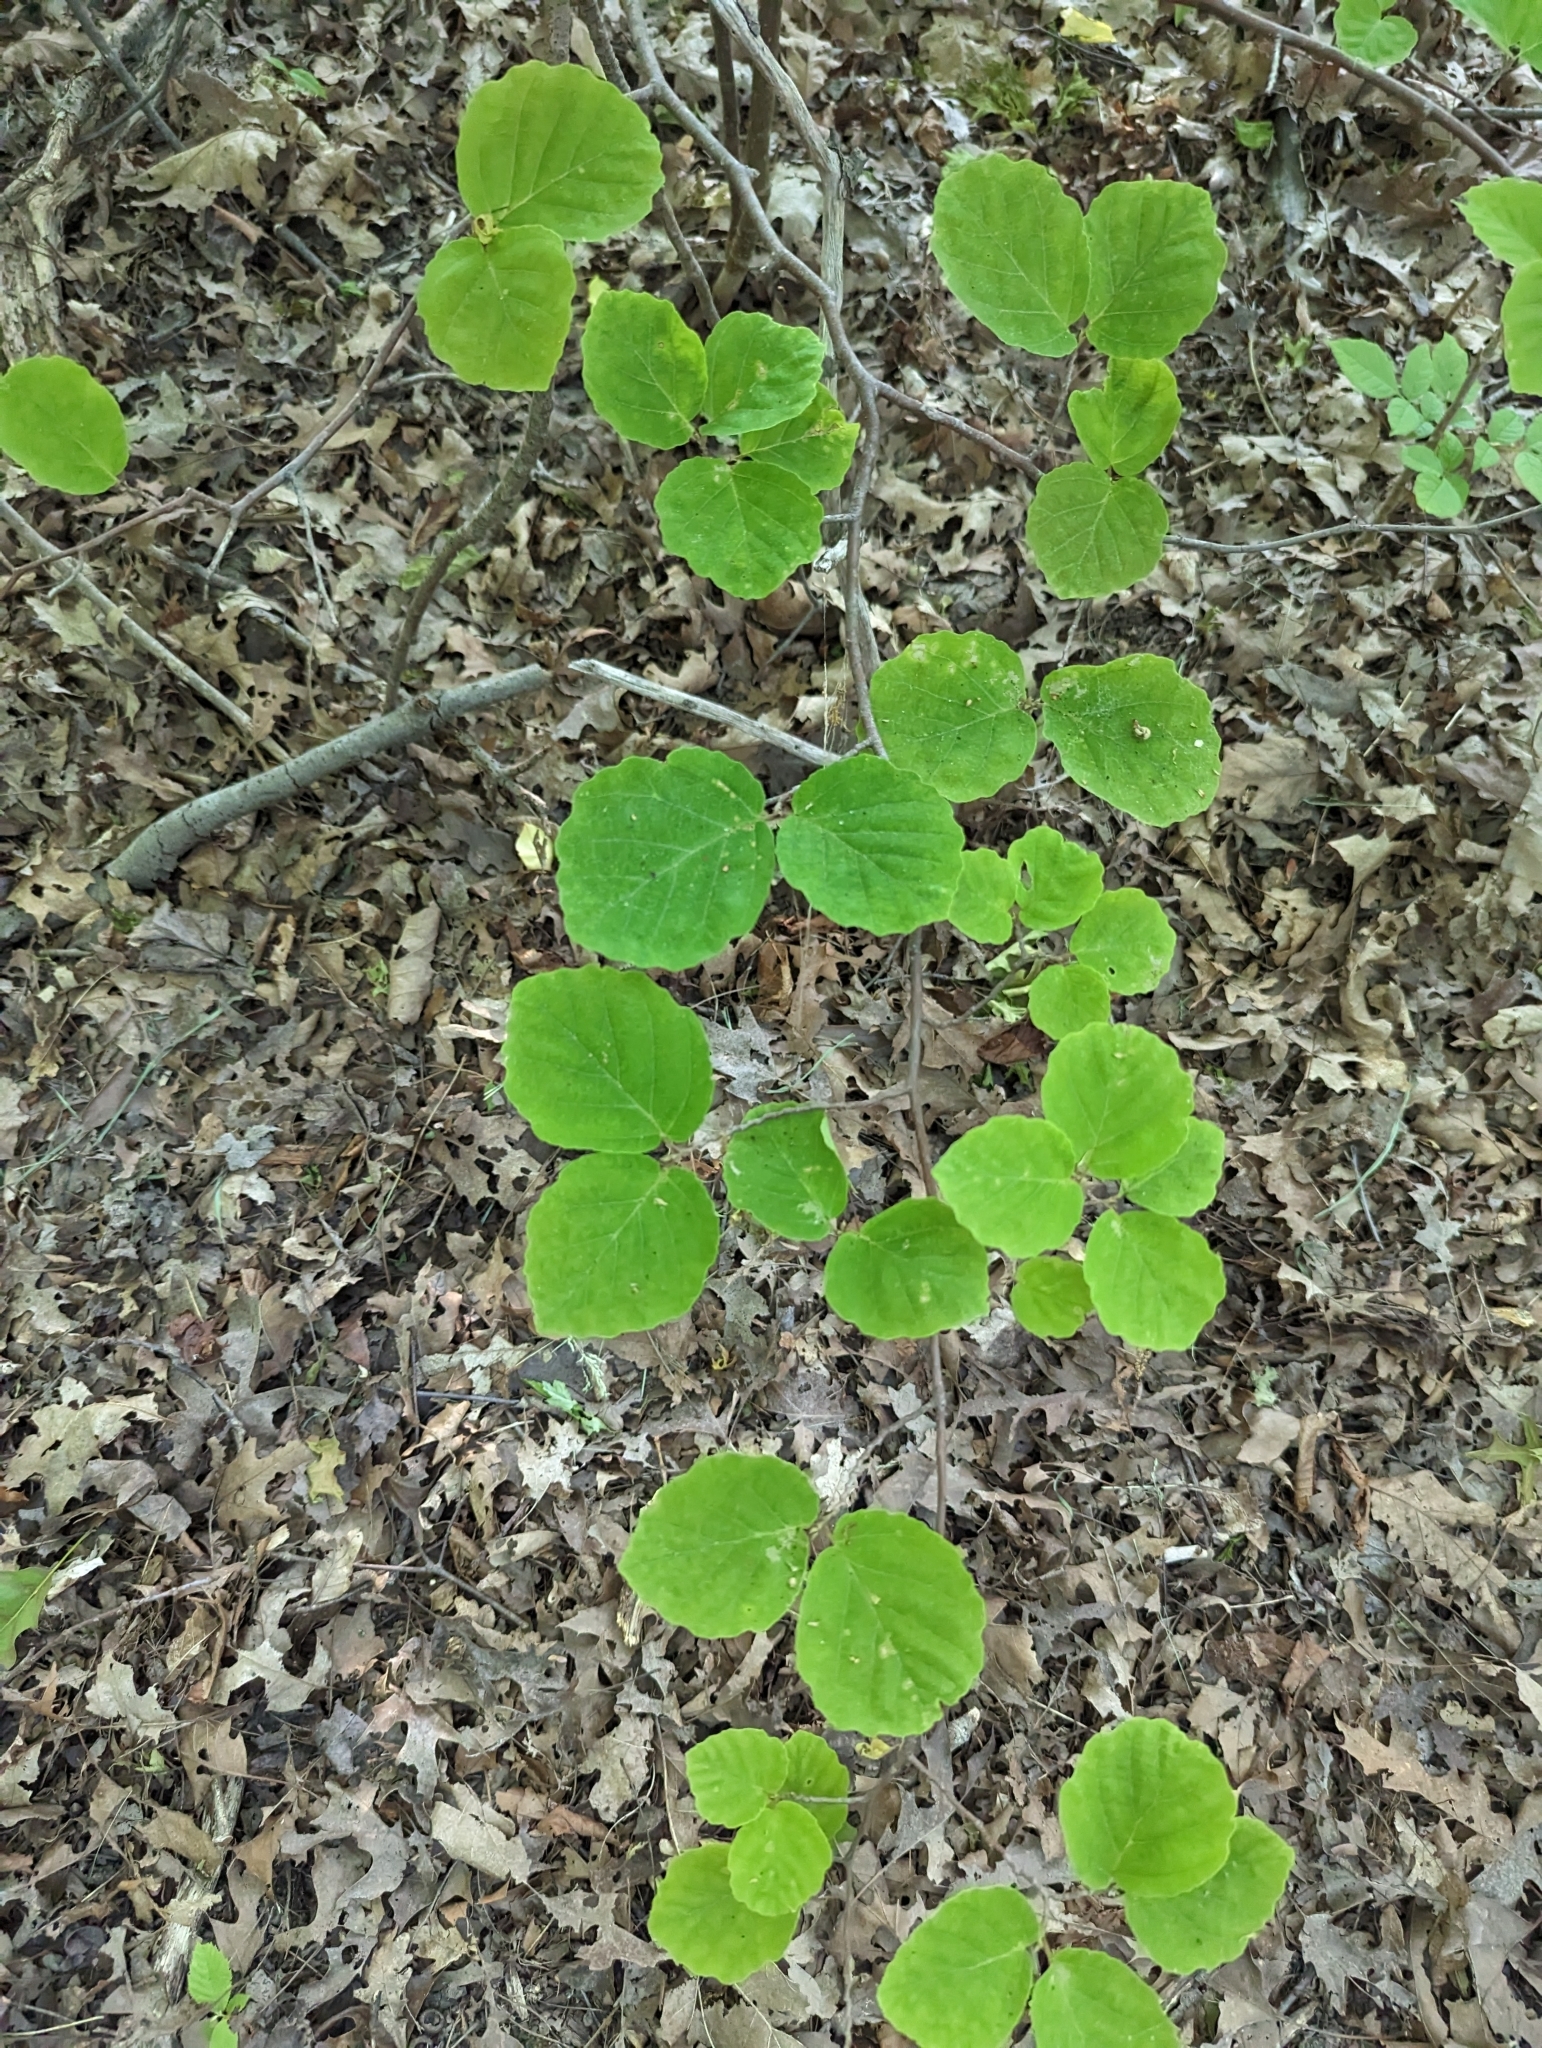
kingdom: Plantae
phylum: Tracheophyta
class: Magnoliopsida
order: Saxifragales
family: Hamamelidaceae
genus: Hamamelis
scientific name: Hamamelis virginiana
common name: Witch-hazel
